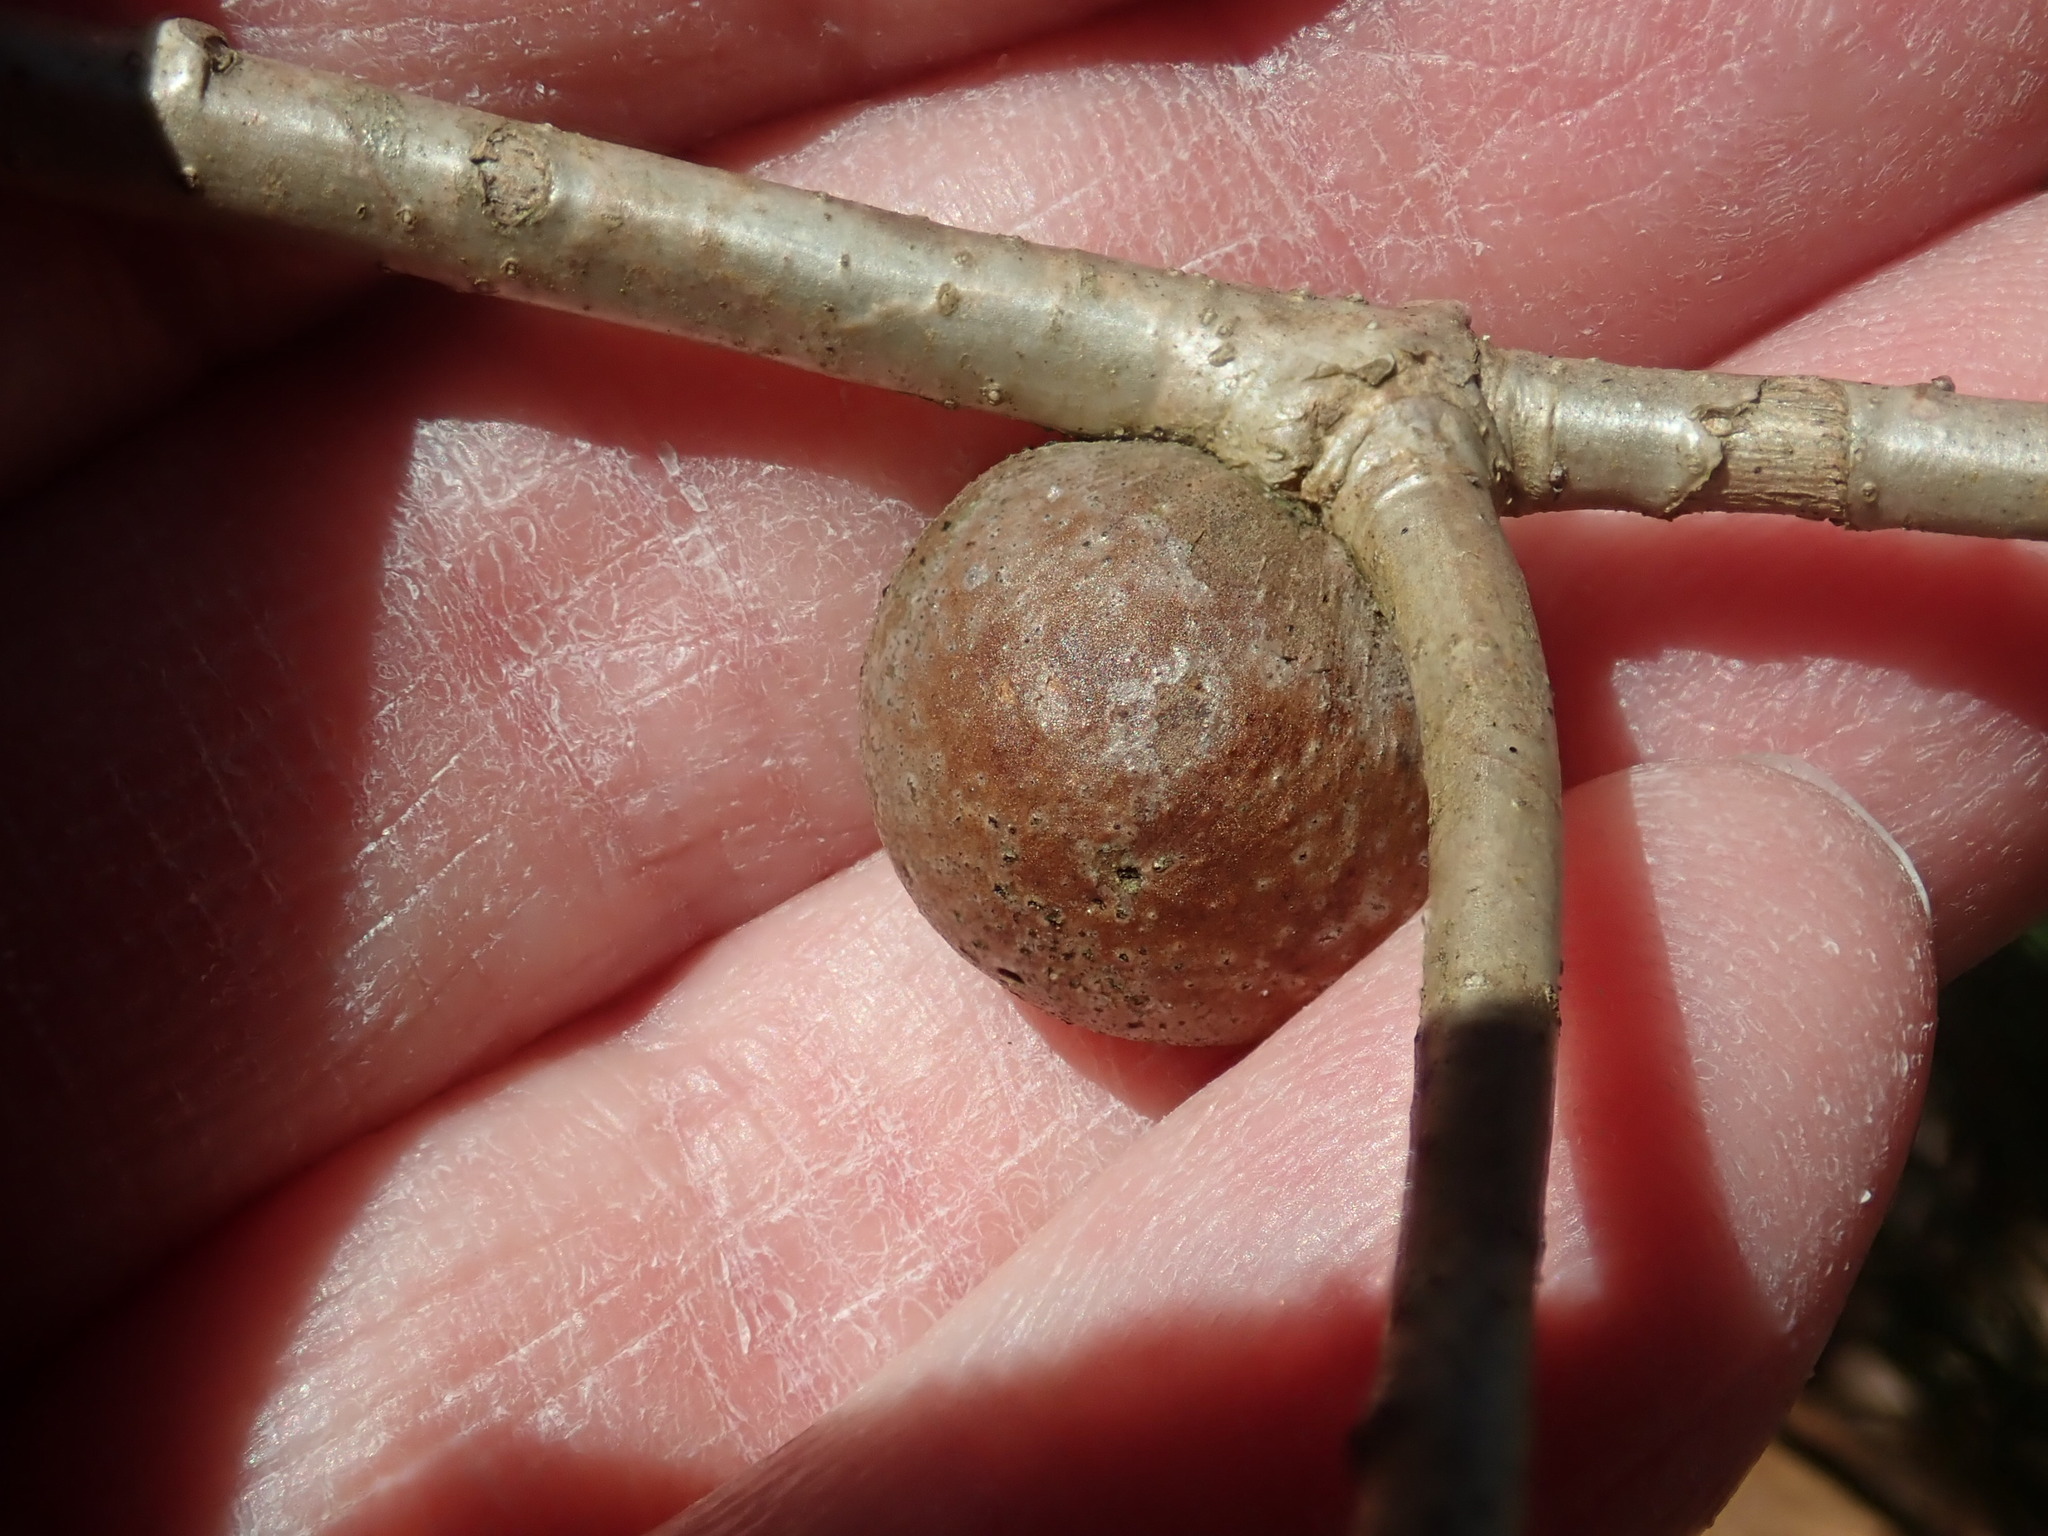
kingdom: Animalia
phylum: Arthropoda
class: Insecta
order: Hymenoptera
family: Cynipidae
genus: Disholcaspis
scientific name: Disholcaspis quercusglobulus
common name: Round bullet gall wasp
